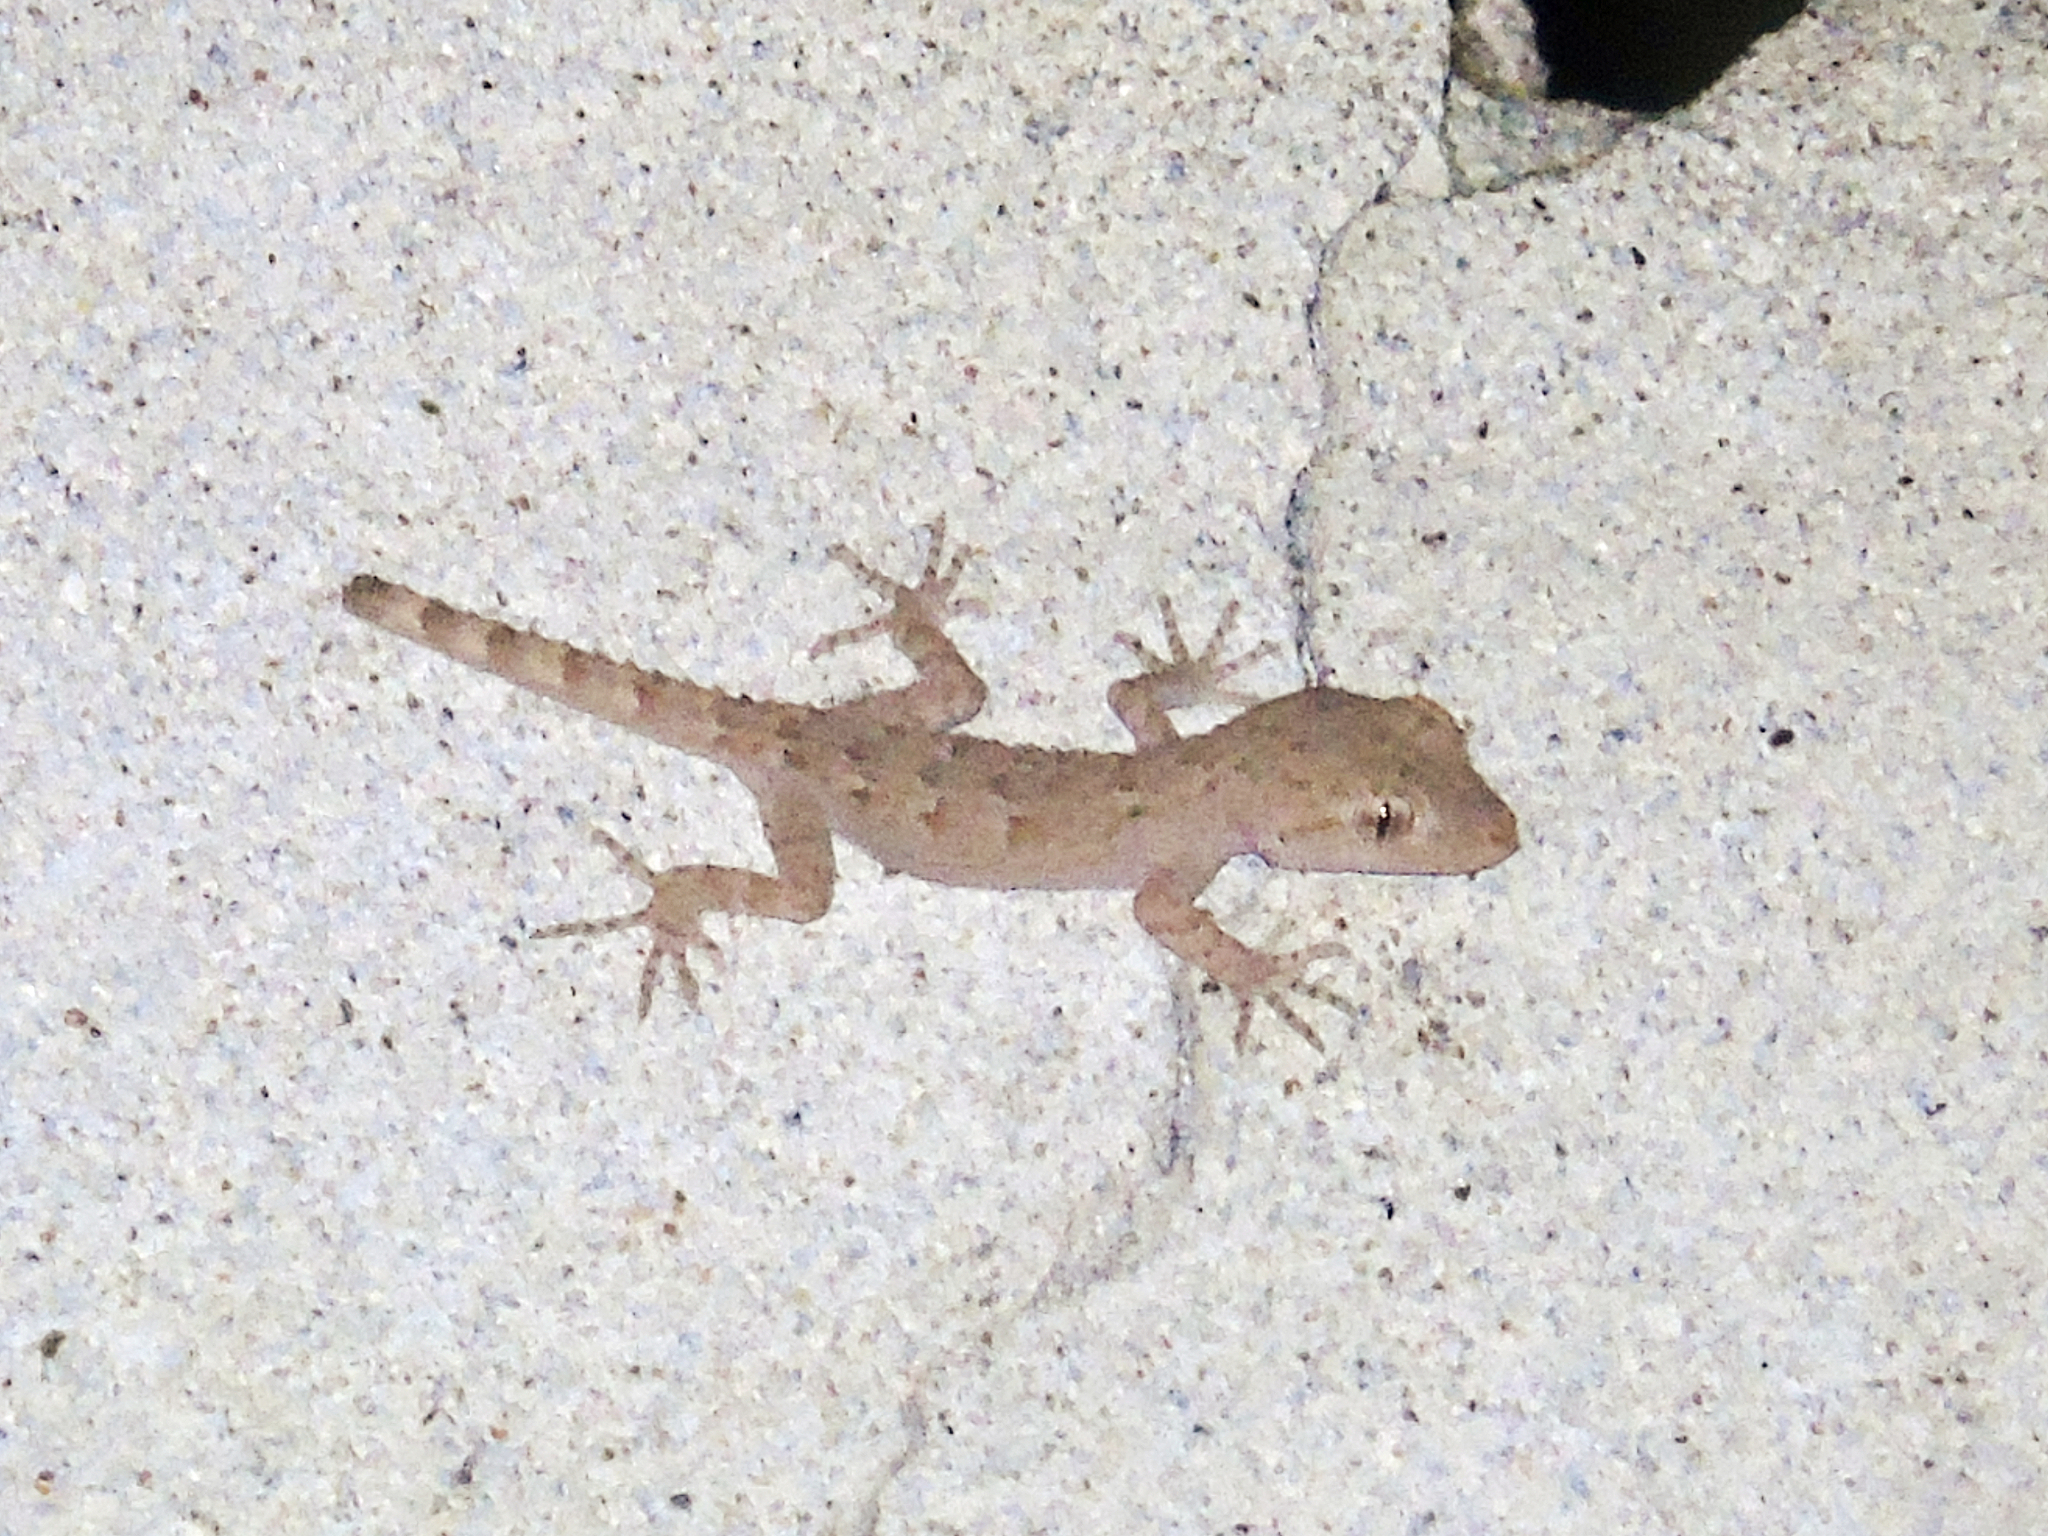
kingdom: Animalia
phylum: Chordata
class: Squamata
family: Gekkonidae
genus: Mediodactylus
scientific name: Mediodactylus russowii
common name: Grey thin-toed gecko
